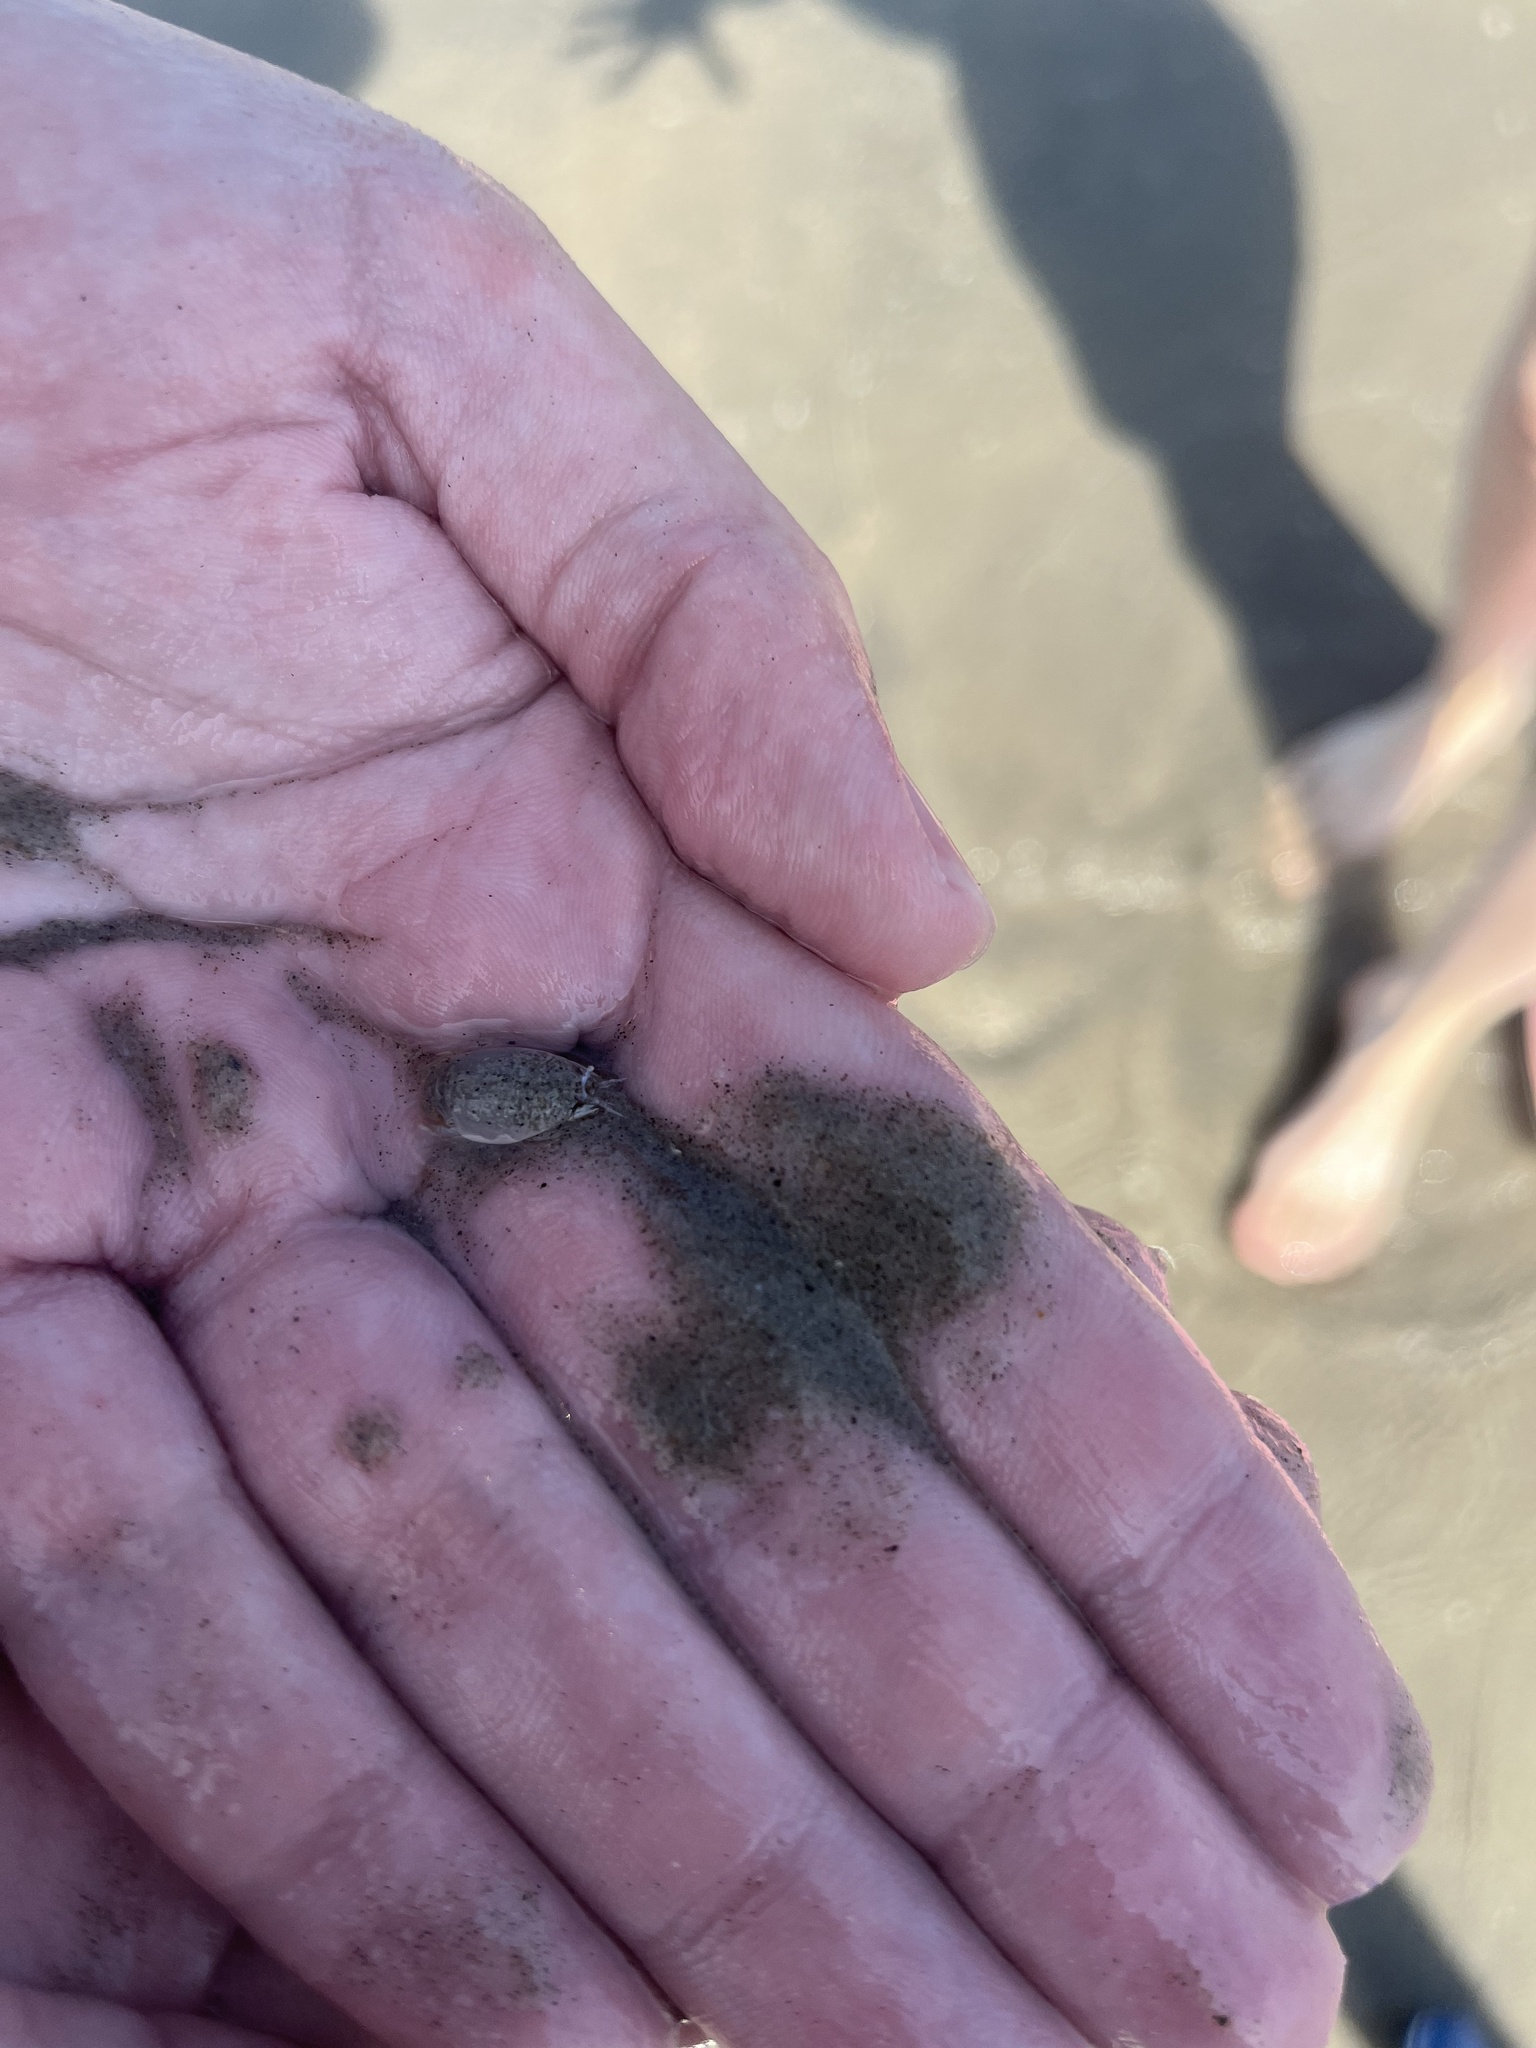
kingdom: Animalia
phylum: Arthropoda
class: Malacostraca
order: Decapoda
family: Hippidae
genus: Emerita
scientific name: Emerita talpoida
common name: Atlantic sand crab
